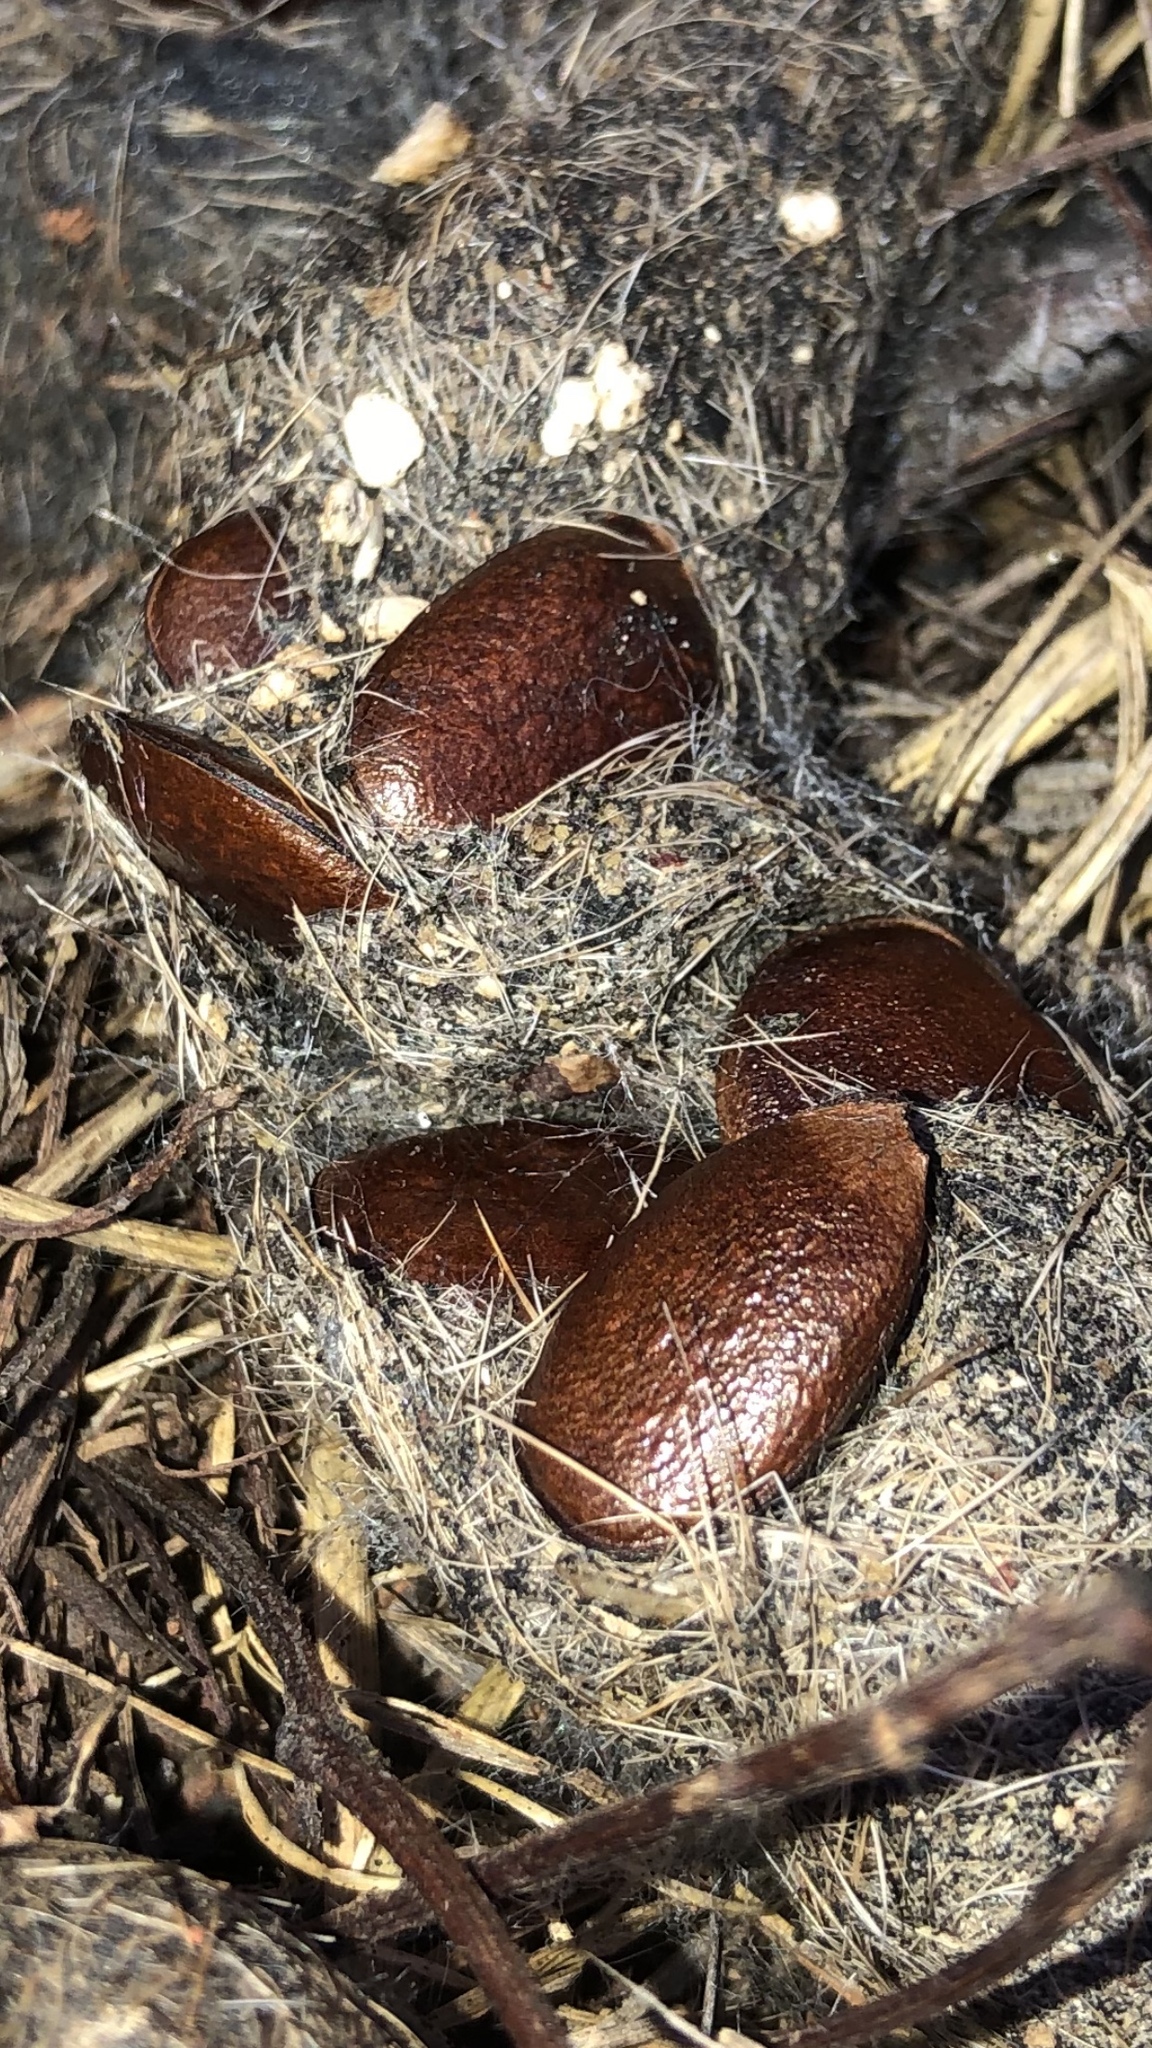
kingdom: Plantae
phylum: Tracheophyta
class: Magnoliopsida
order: Ericales
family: Ebenaceae
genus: Diospyros
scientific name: Diospyros virginiana
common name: Persimmon
